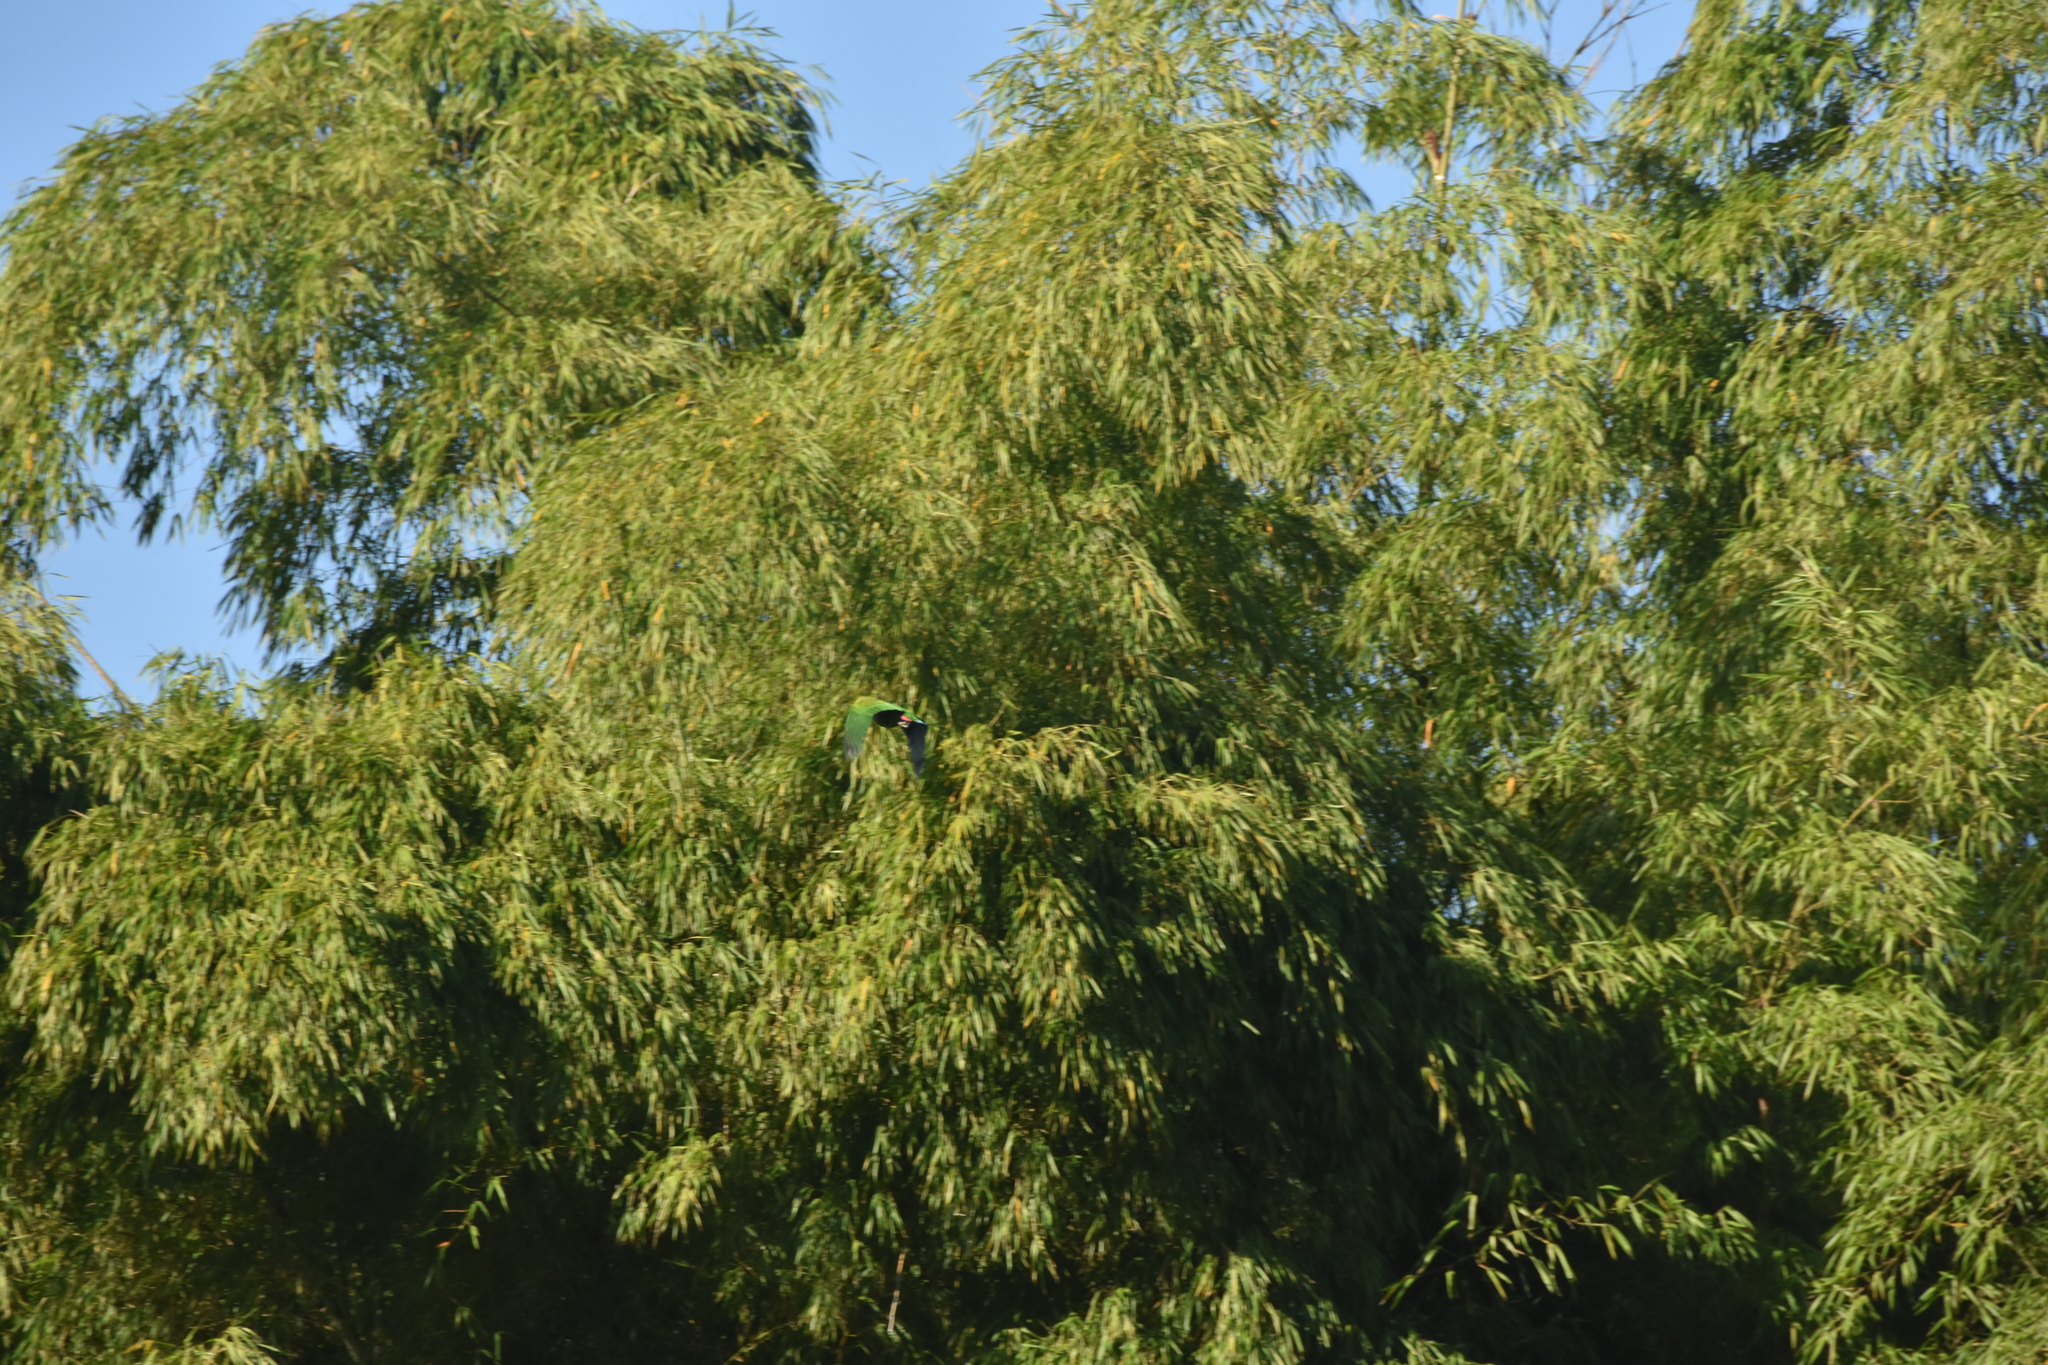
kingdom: Animalia
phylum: Chordata
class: Aves
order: Psittaciformes
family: Psittacidae
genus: Pionus
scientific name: Pionus menstruus
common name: Blue-headed parrot
